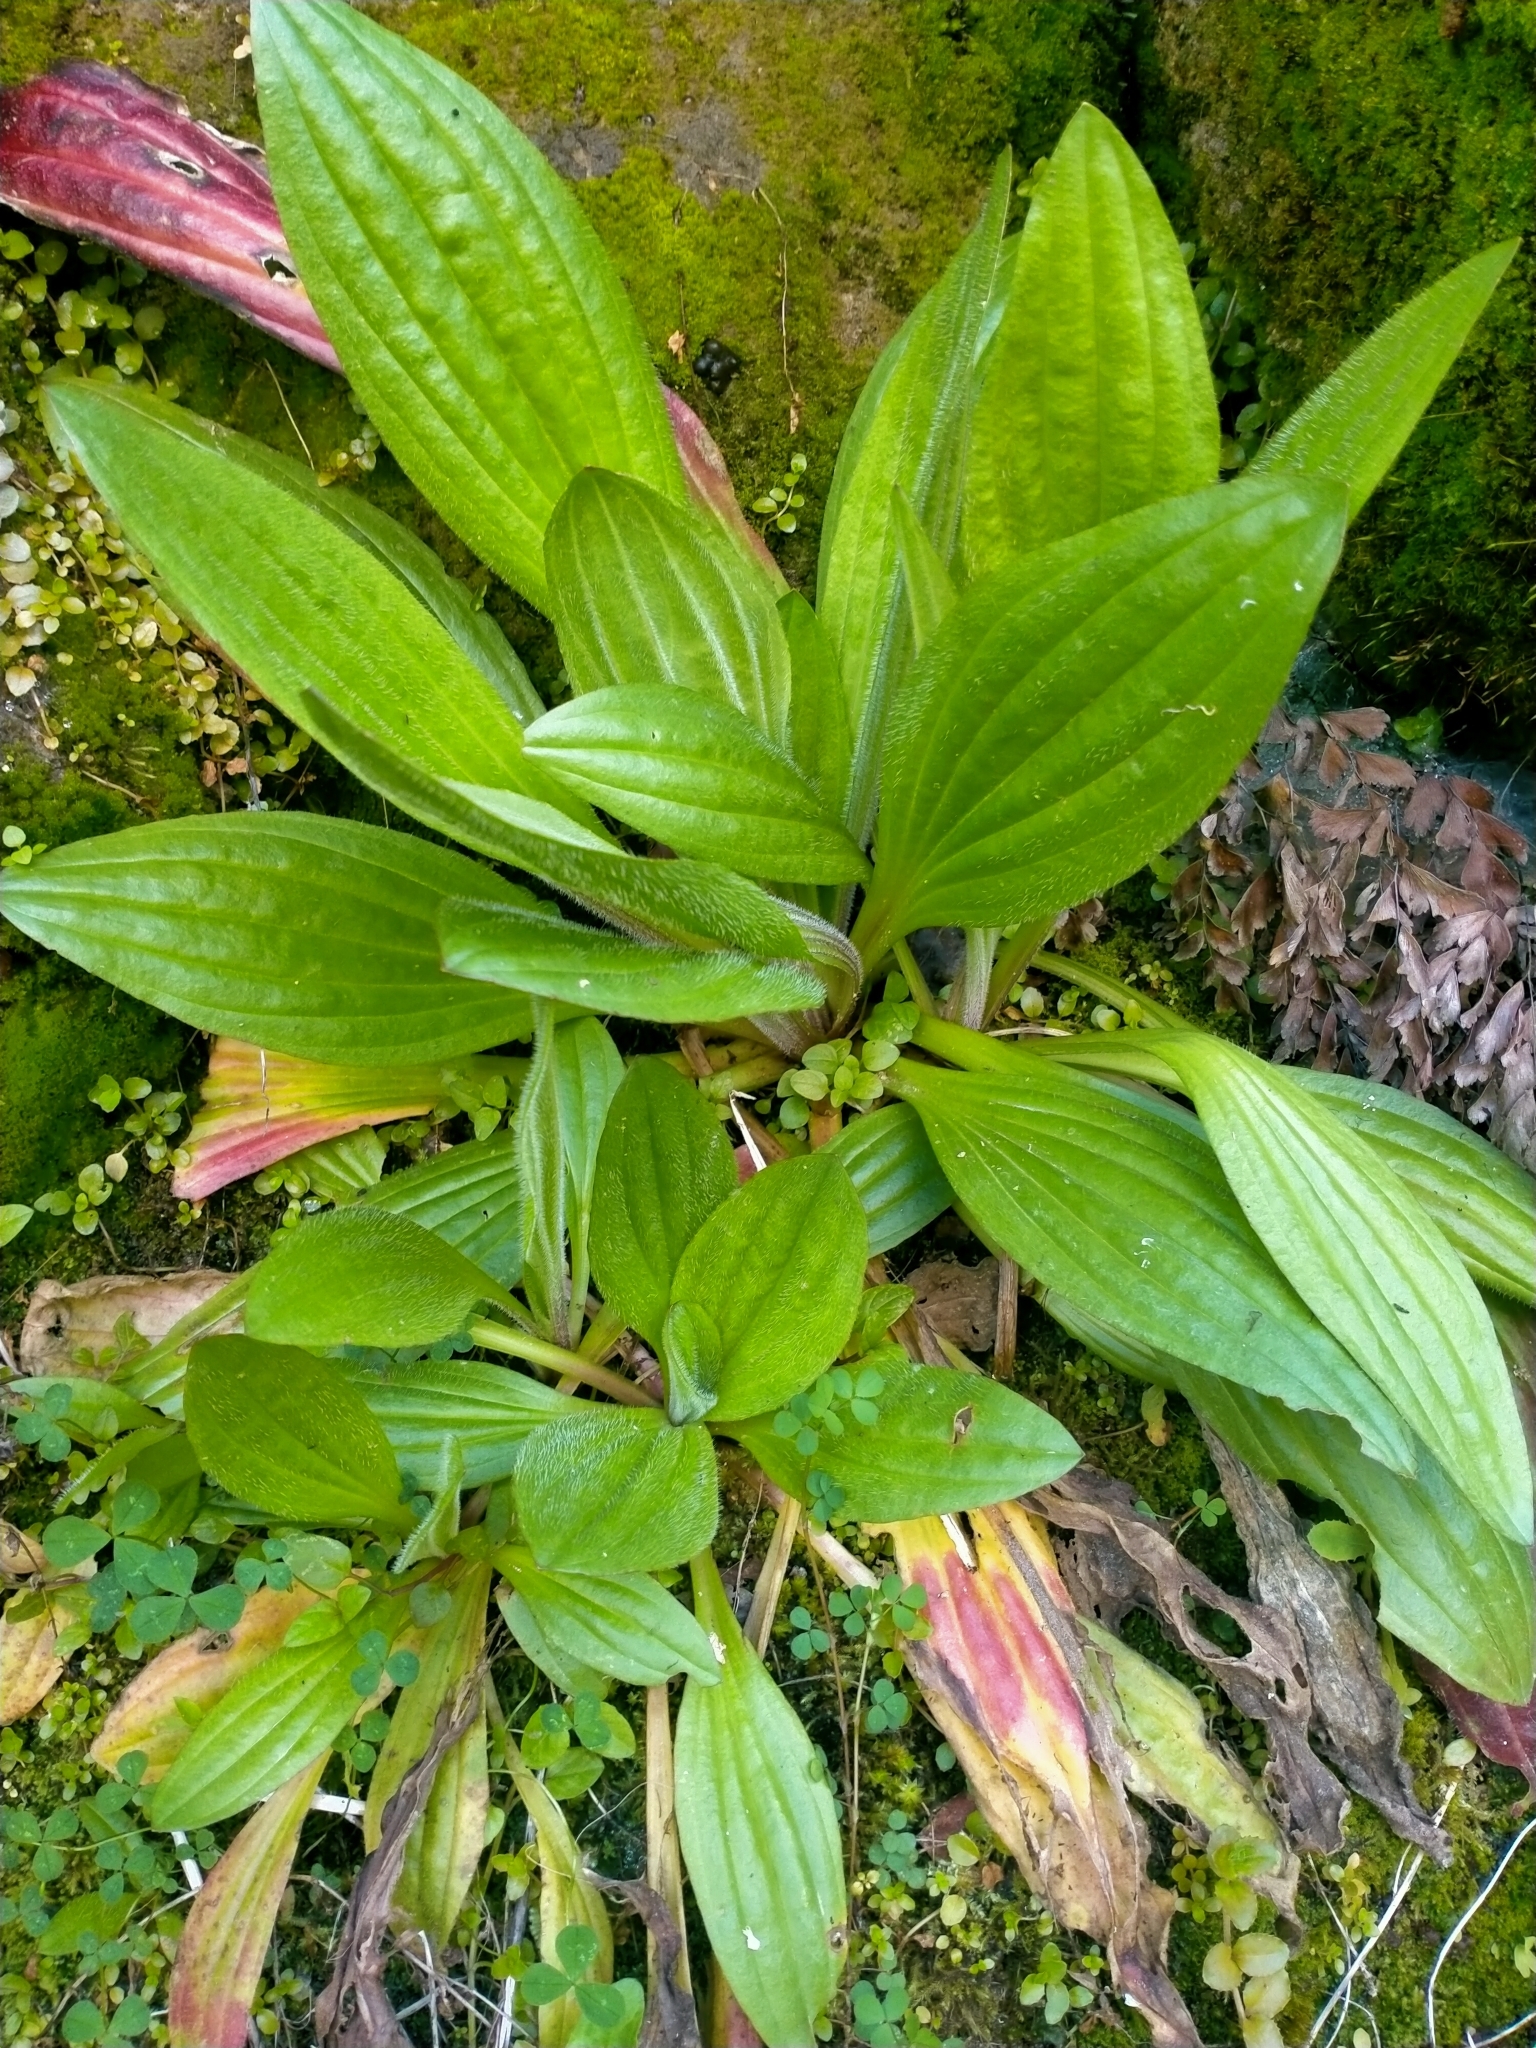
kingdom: Plantae
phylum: Tracheophyta
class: Magnoliopsida
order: Lamiales
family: Plantaginaceae
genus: Plantago
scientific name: Plantago australis
